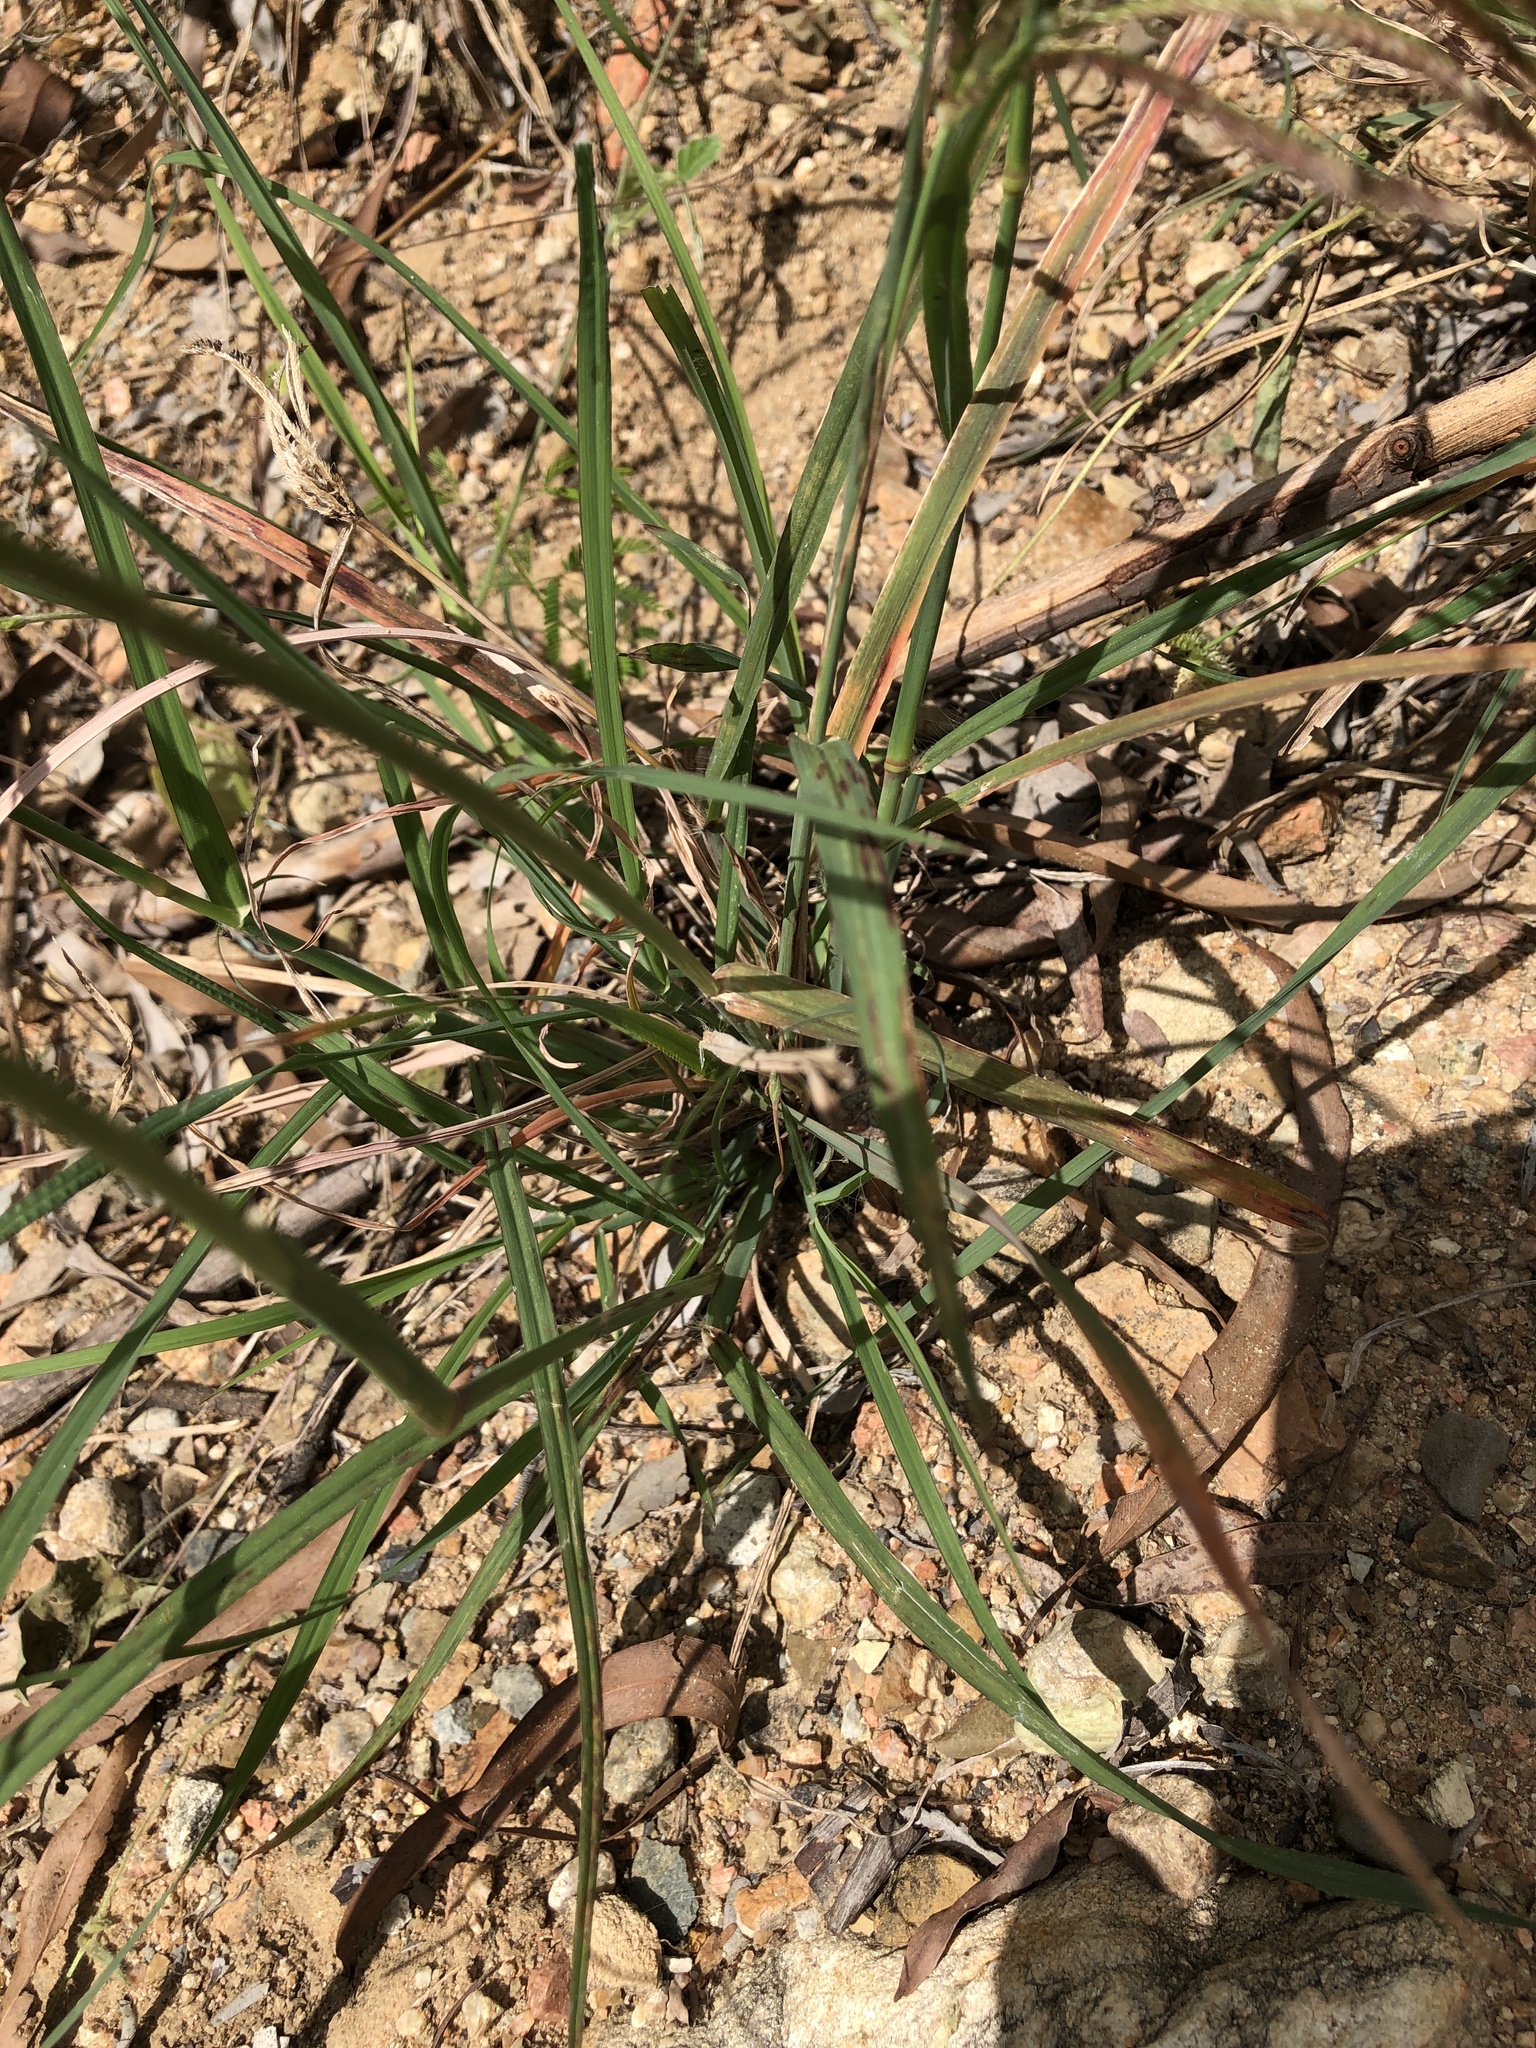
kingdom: Plantae
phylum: Tracheophyta
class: Liliopsida
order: Poales
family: Poaceae
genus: Chloris
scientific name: Chloris barbata
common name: Swollen fingergrass
